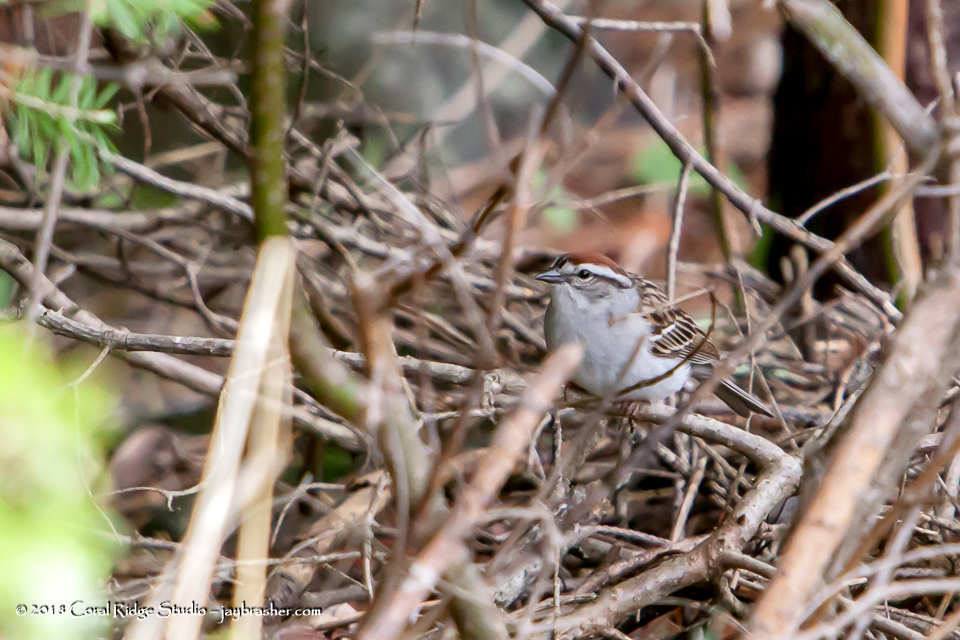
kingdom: Animalia
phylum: Chordata
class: Aves
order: Passeriformes
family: Passerellidae
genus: Spizella
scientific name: Spizella passerina
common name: Chipping sparrow
